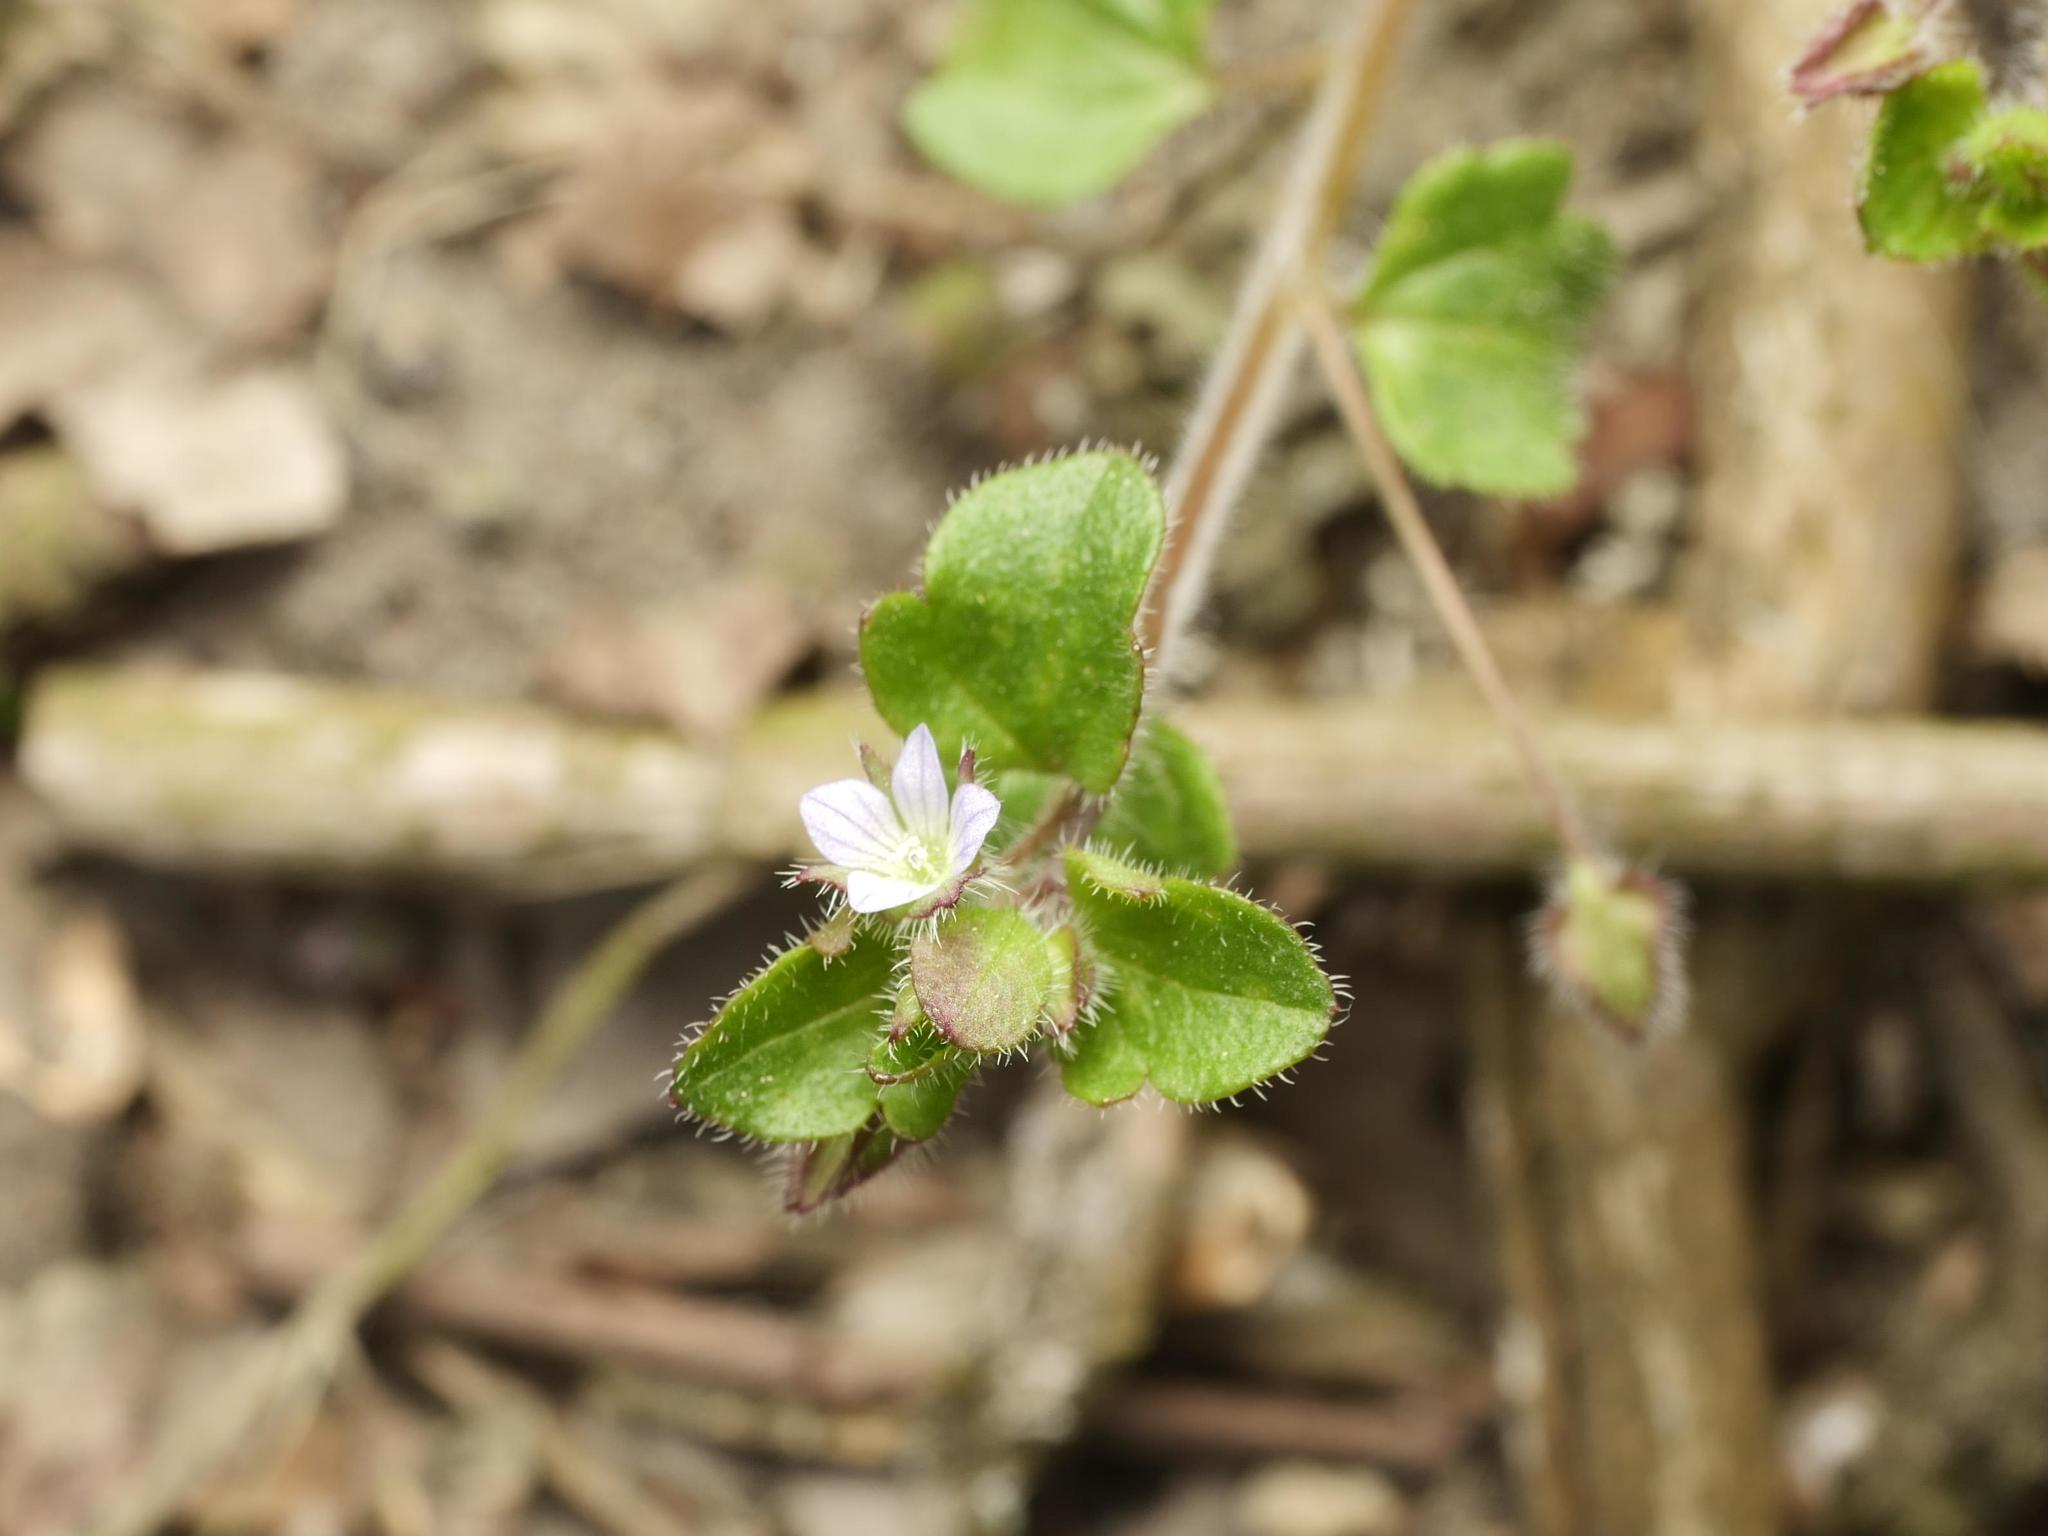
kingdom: Plantae
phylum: Tracheophyta
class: Magnoliopsida
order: Lamiales
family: Plantaginaceae
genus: Veronica
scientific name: Veronica sublobata
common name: False ivy-leaved speedwell
